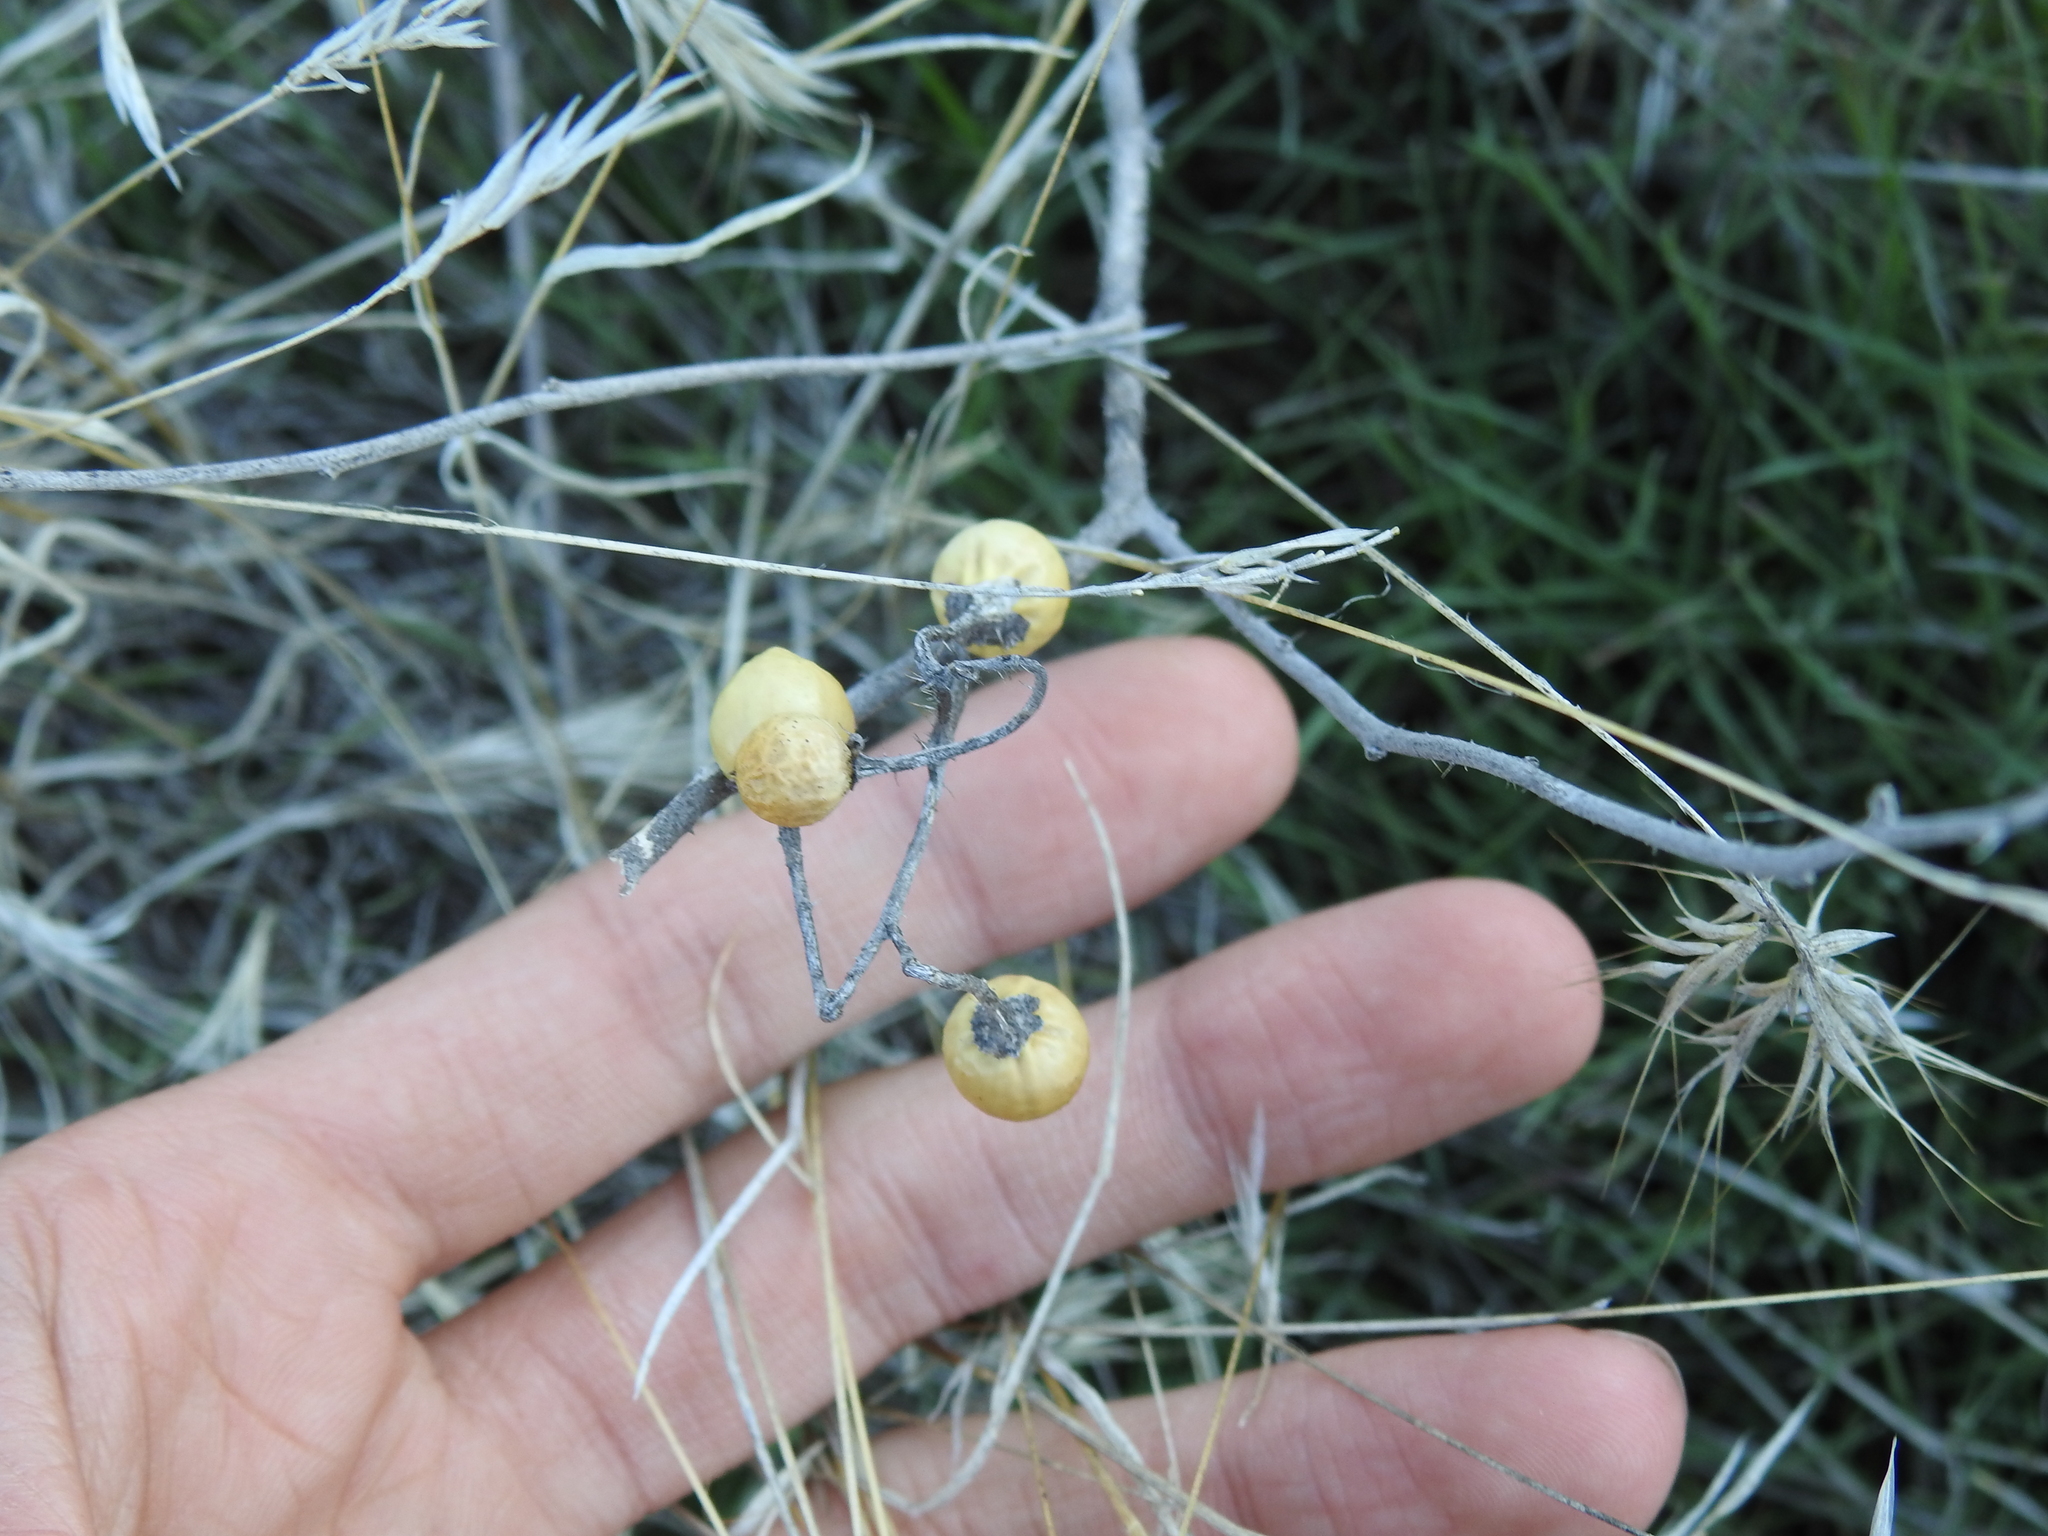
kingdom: Plantae
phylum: Tracheophyta
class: Magnoliopsida
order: Solanales
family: Solanaceae
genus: Solanum
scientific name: Solanum elaeagnifolium
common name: Silverleaf nightshade
